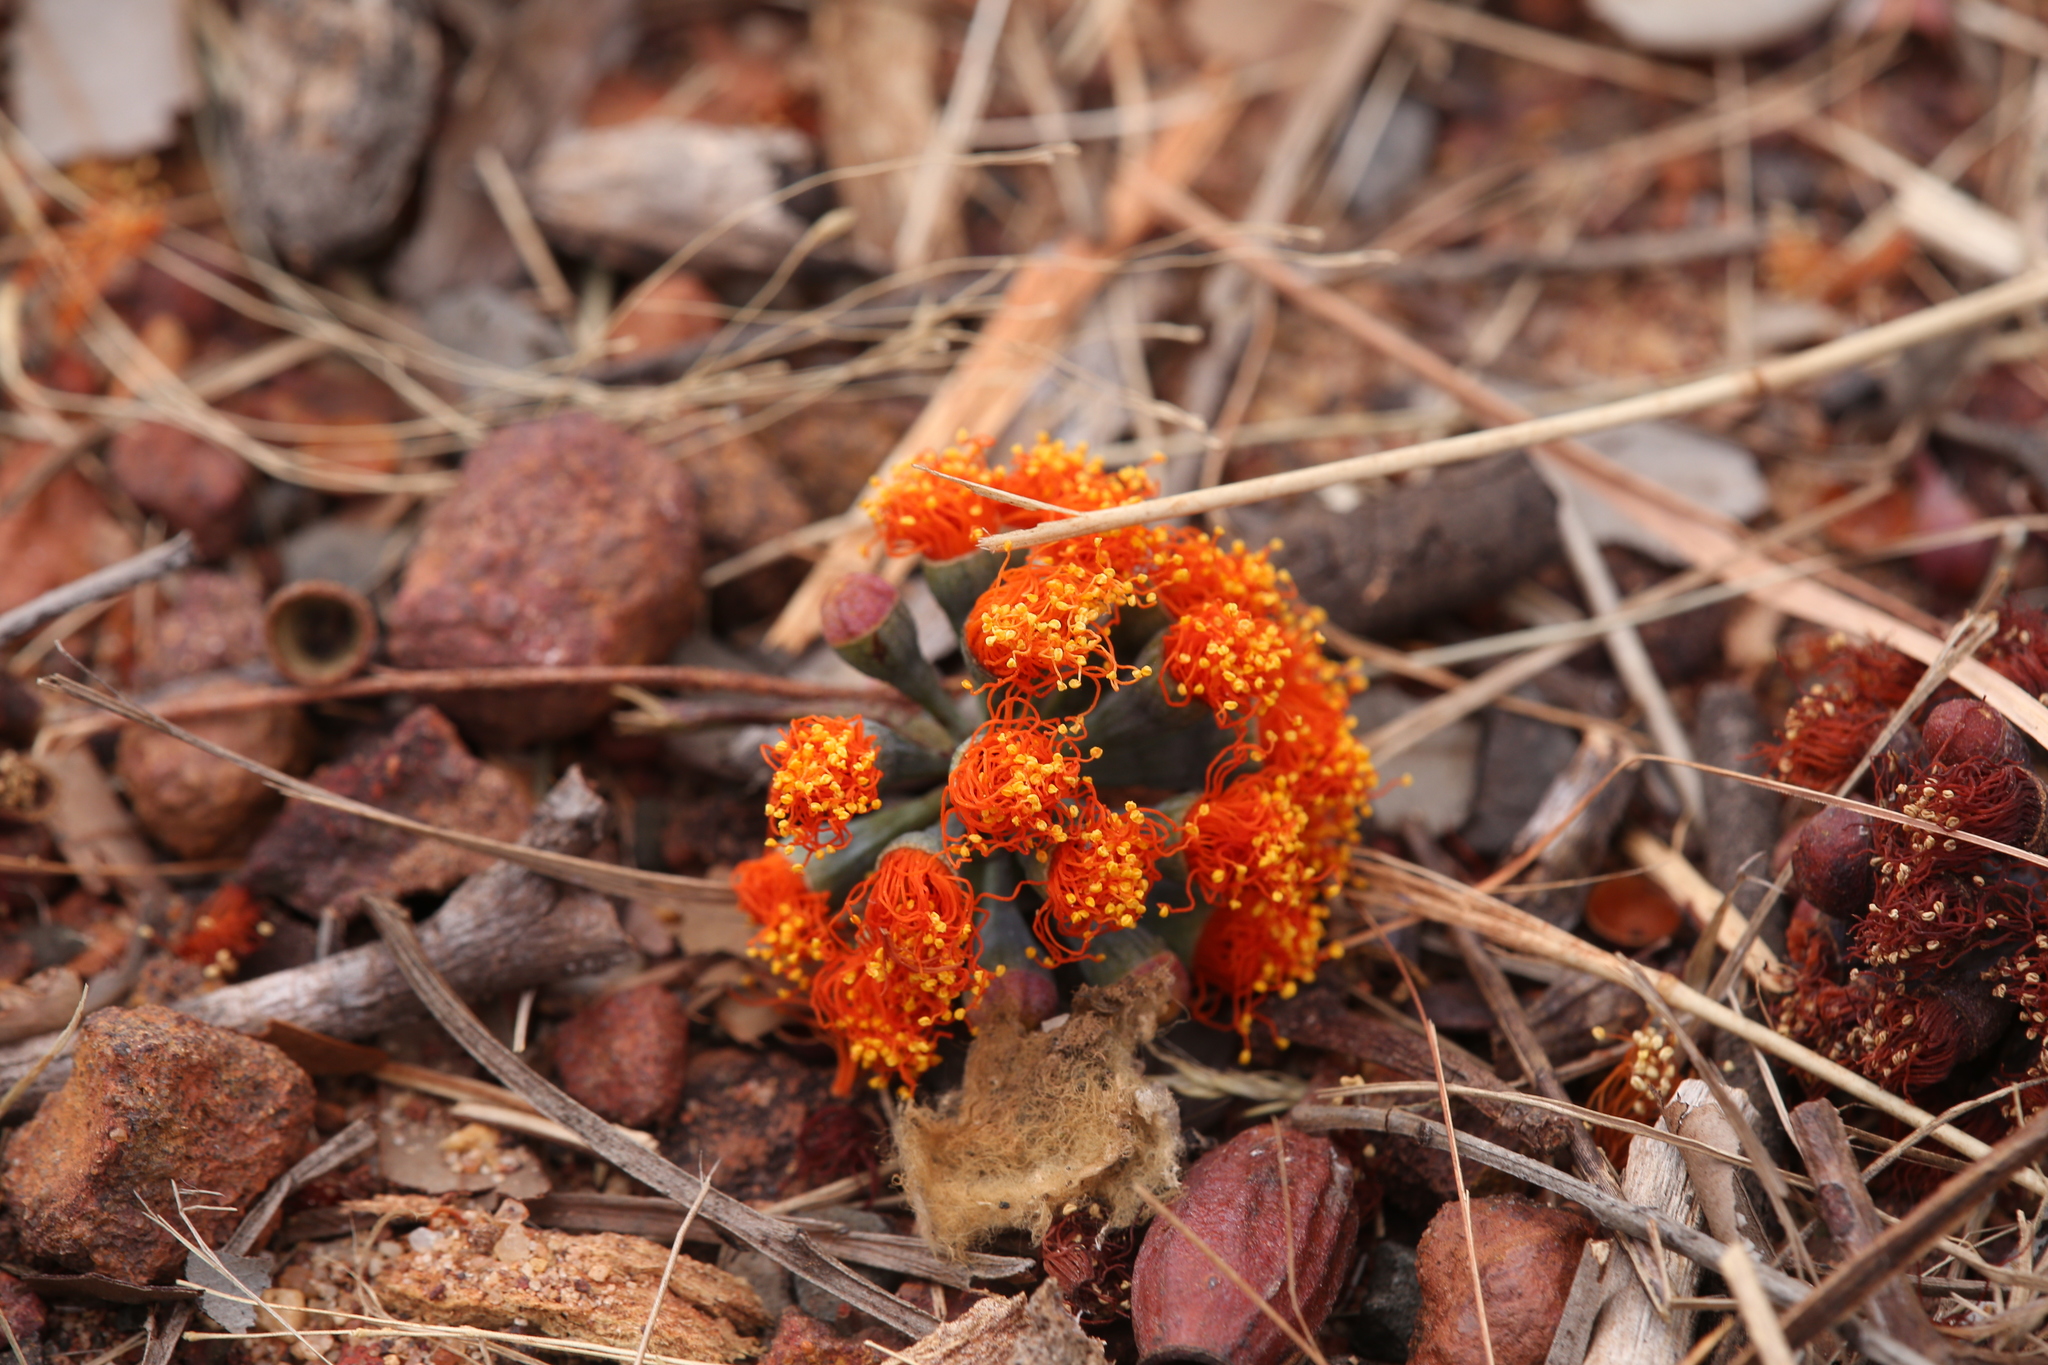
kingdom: Plantae
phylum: Tracheophyta
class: Magnoliopsida
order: Myrtales
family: Myrtaceae
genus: Eucalyptus
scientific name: Eucalyptus phoenicea
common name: Gnaingar
